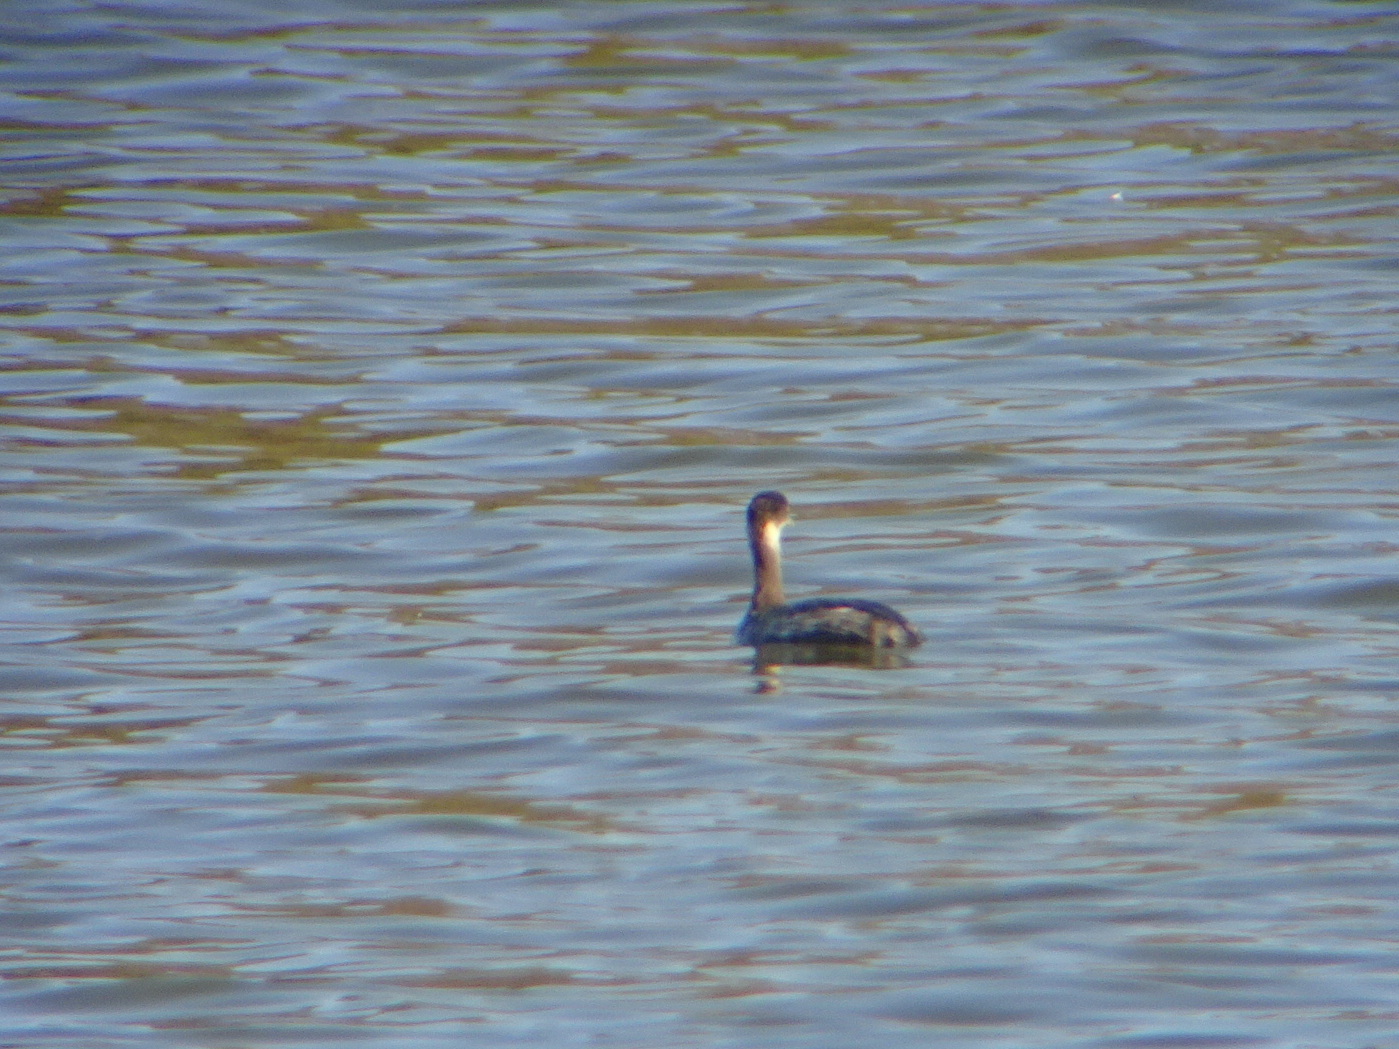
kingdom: Animalia
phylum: Chordata
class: Aves
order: Podicipediformes
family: Podicipedidae
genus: Podiceps
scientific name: Podiceps nigricollis
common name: Black-necked grebe
